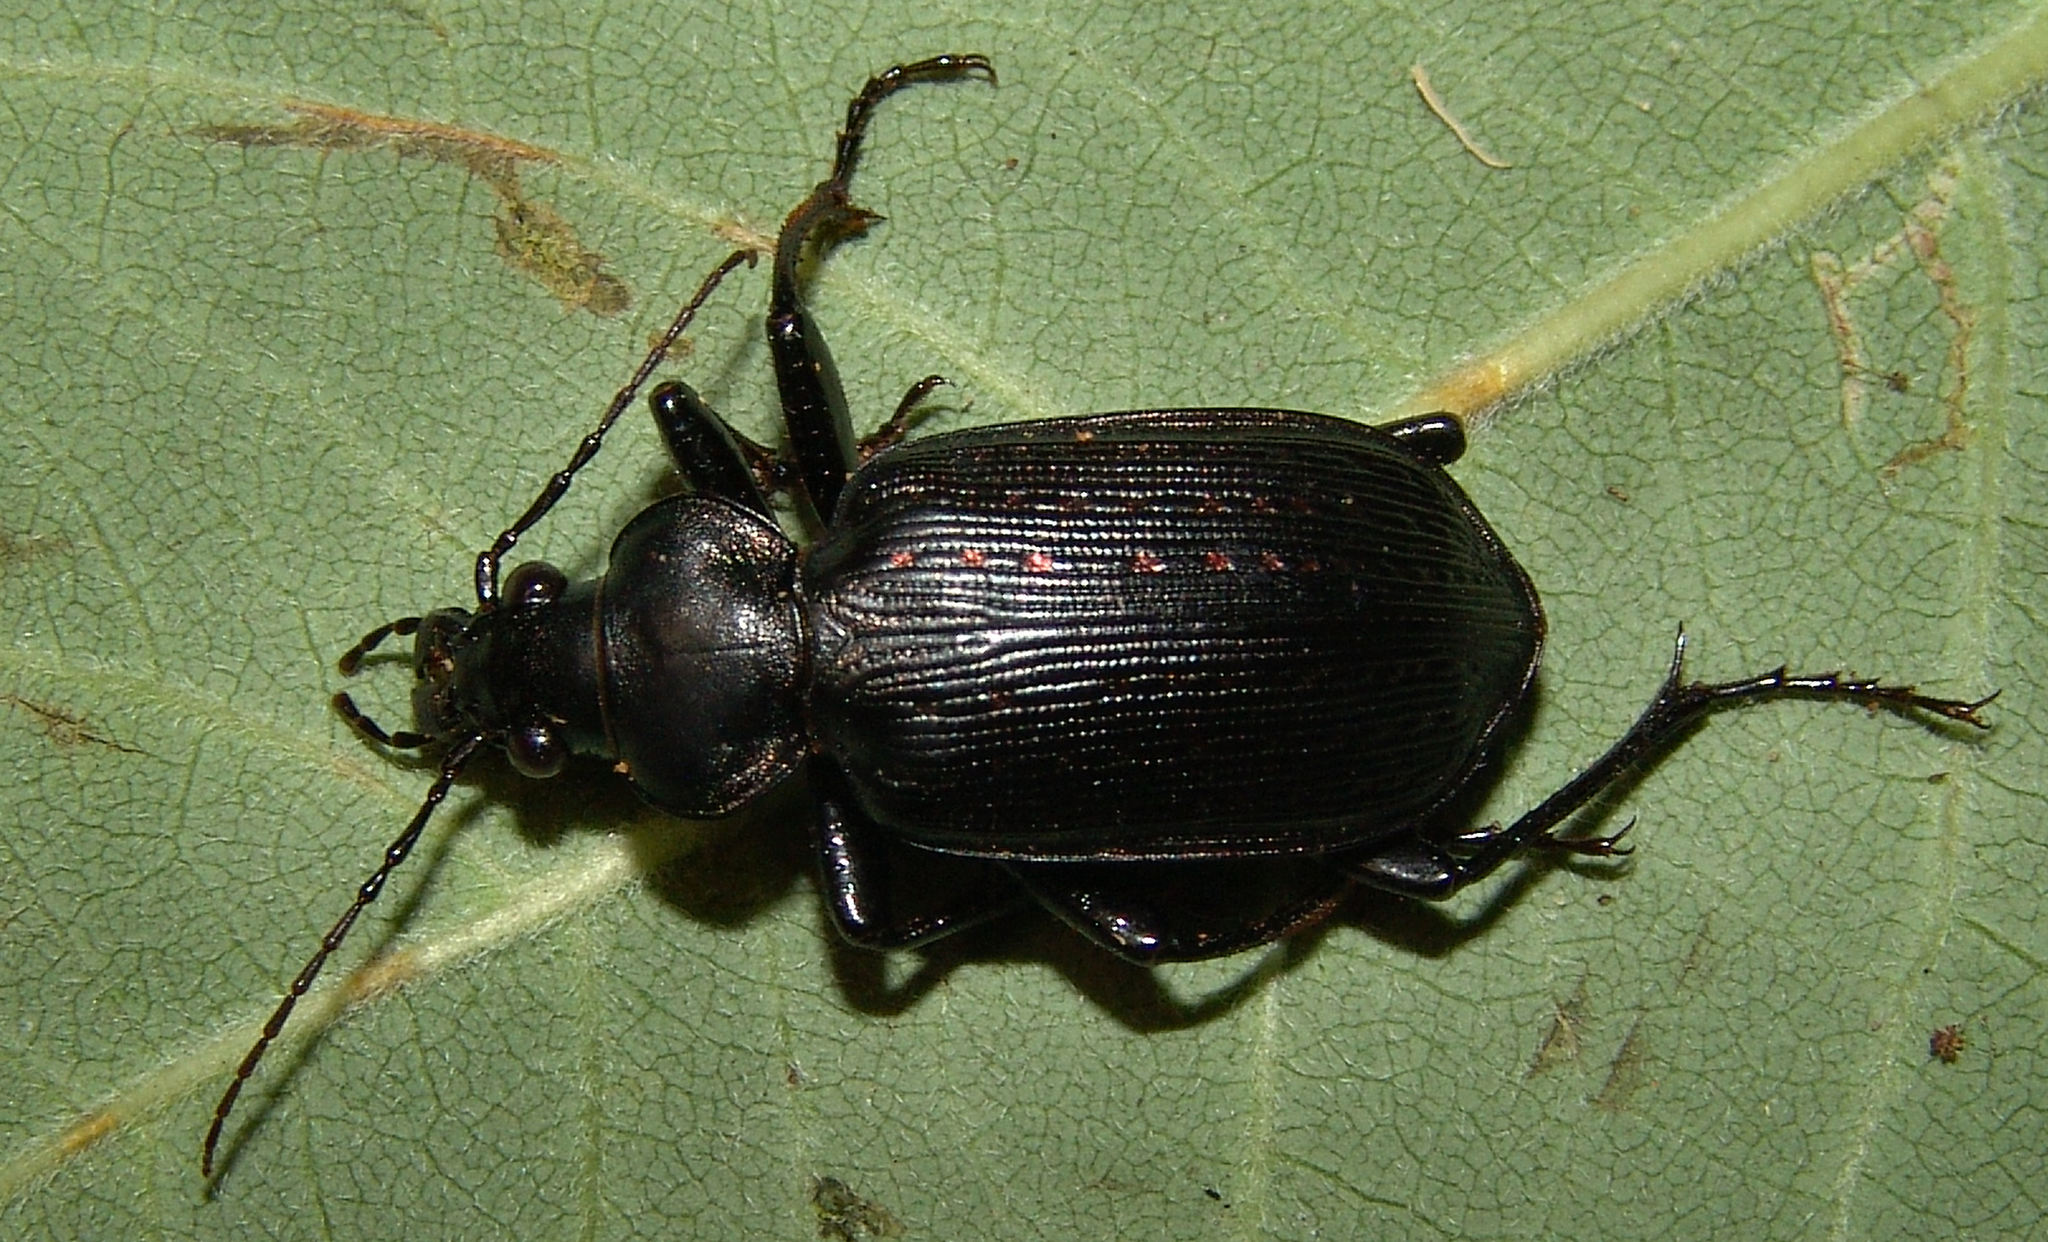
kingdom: Animalia
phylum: Arthropoda
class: Insecta
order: Coleoptera
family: Carabidae
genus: Calosoma
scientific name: Calosoma sayi
